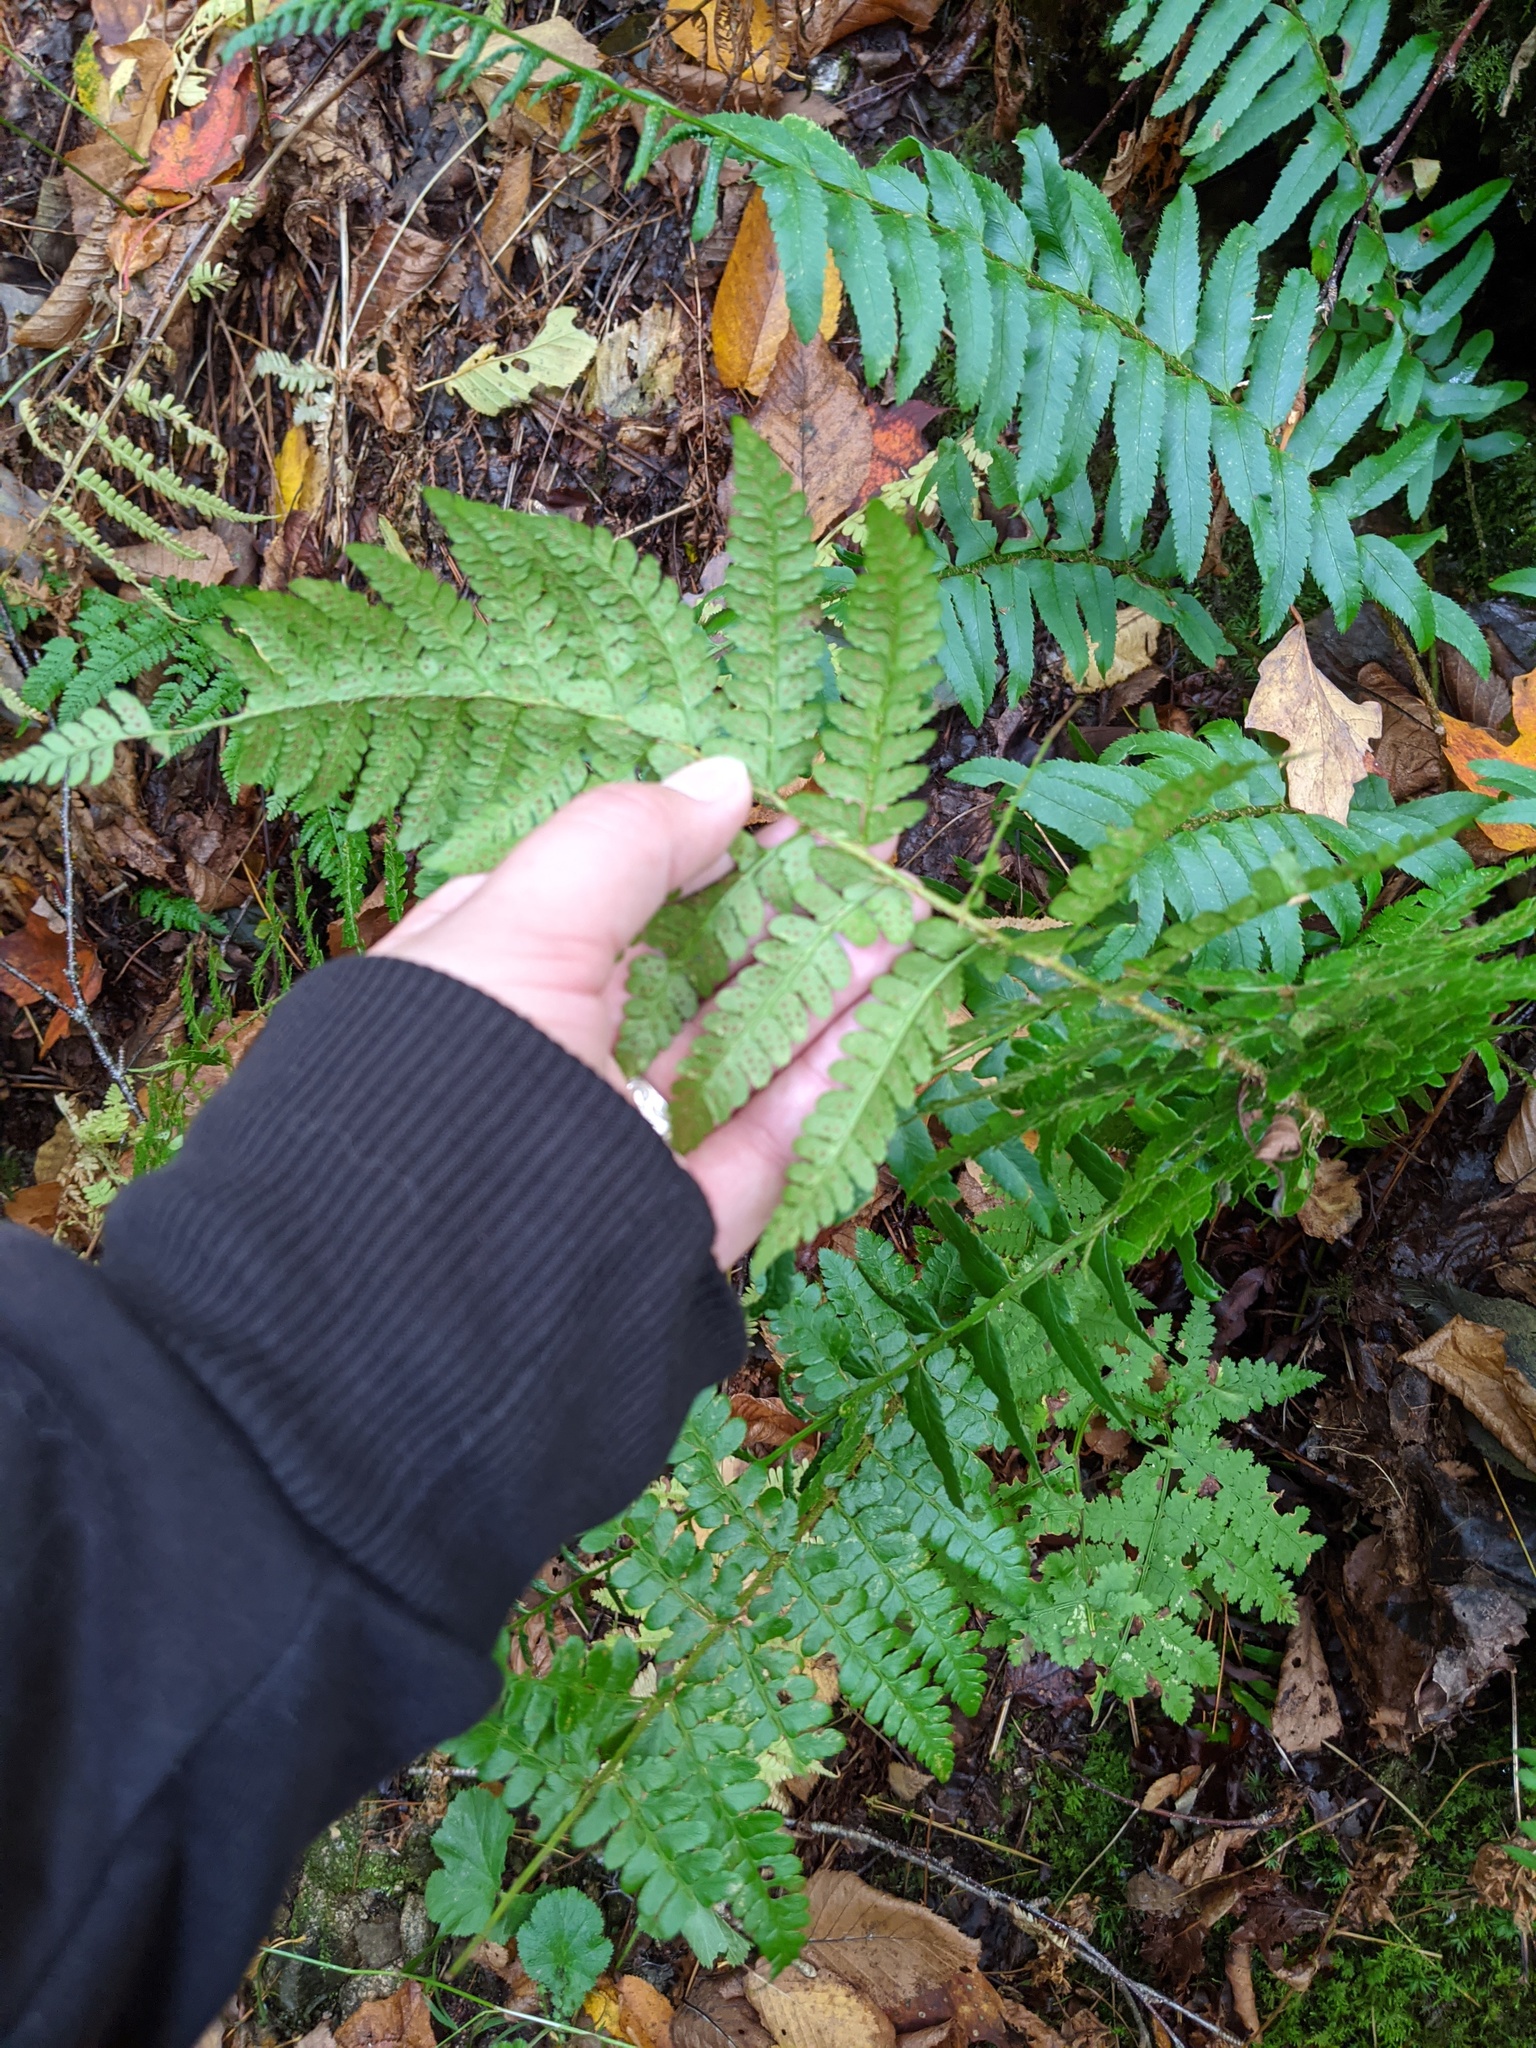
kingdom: Plantae
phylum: Tracheophyta
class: Polypodiopsida
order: Polypodiales
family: Dryopteridaceae
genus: Polystichum
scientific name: Polystichum braunii
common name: Braun's holly fern
